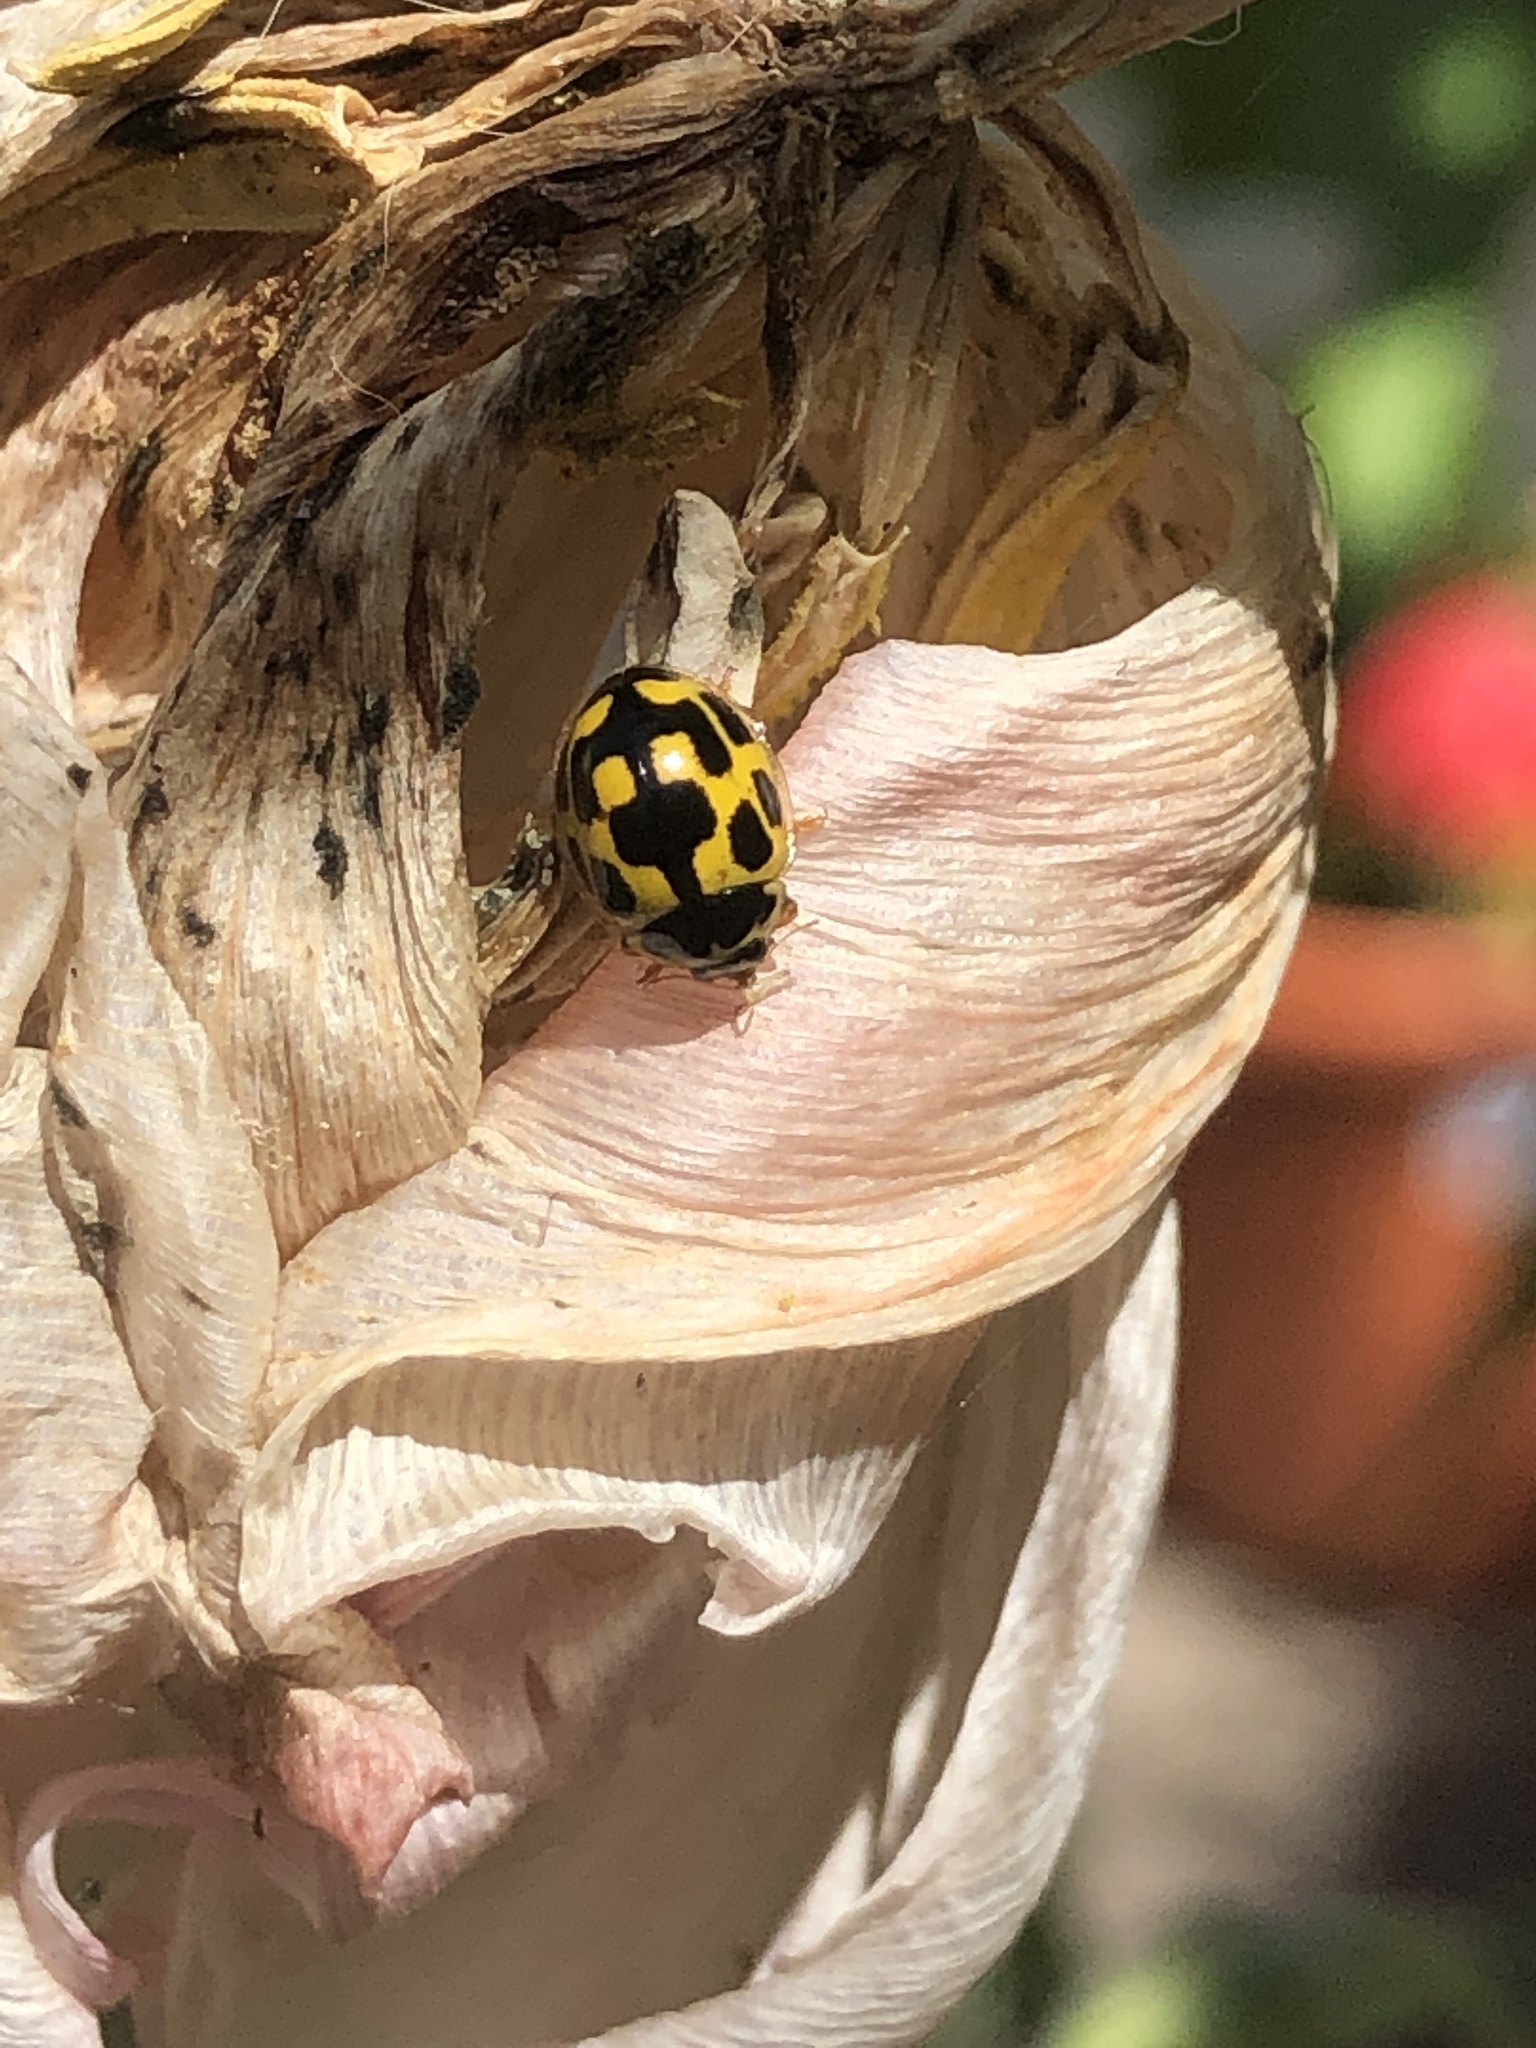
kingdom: Animalia
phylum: Arthropoda
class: Insecta
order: Coleoptera
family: Coccinellidae
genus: Propylaea
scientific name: Propylaea quatuordecimpunctata
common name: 14-spotted ladybird beetle
